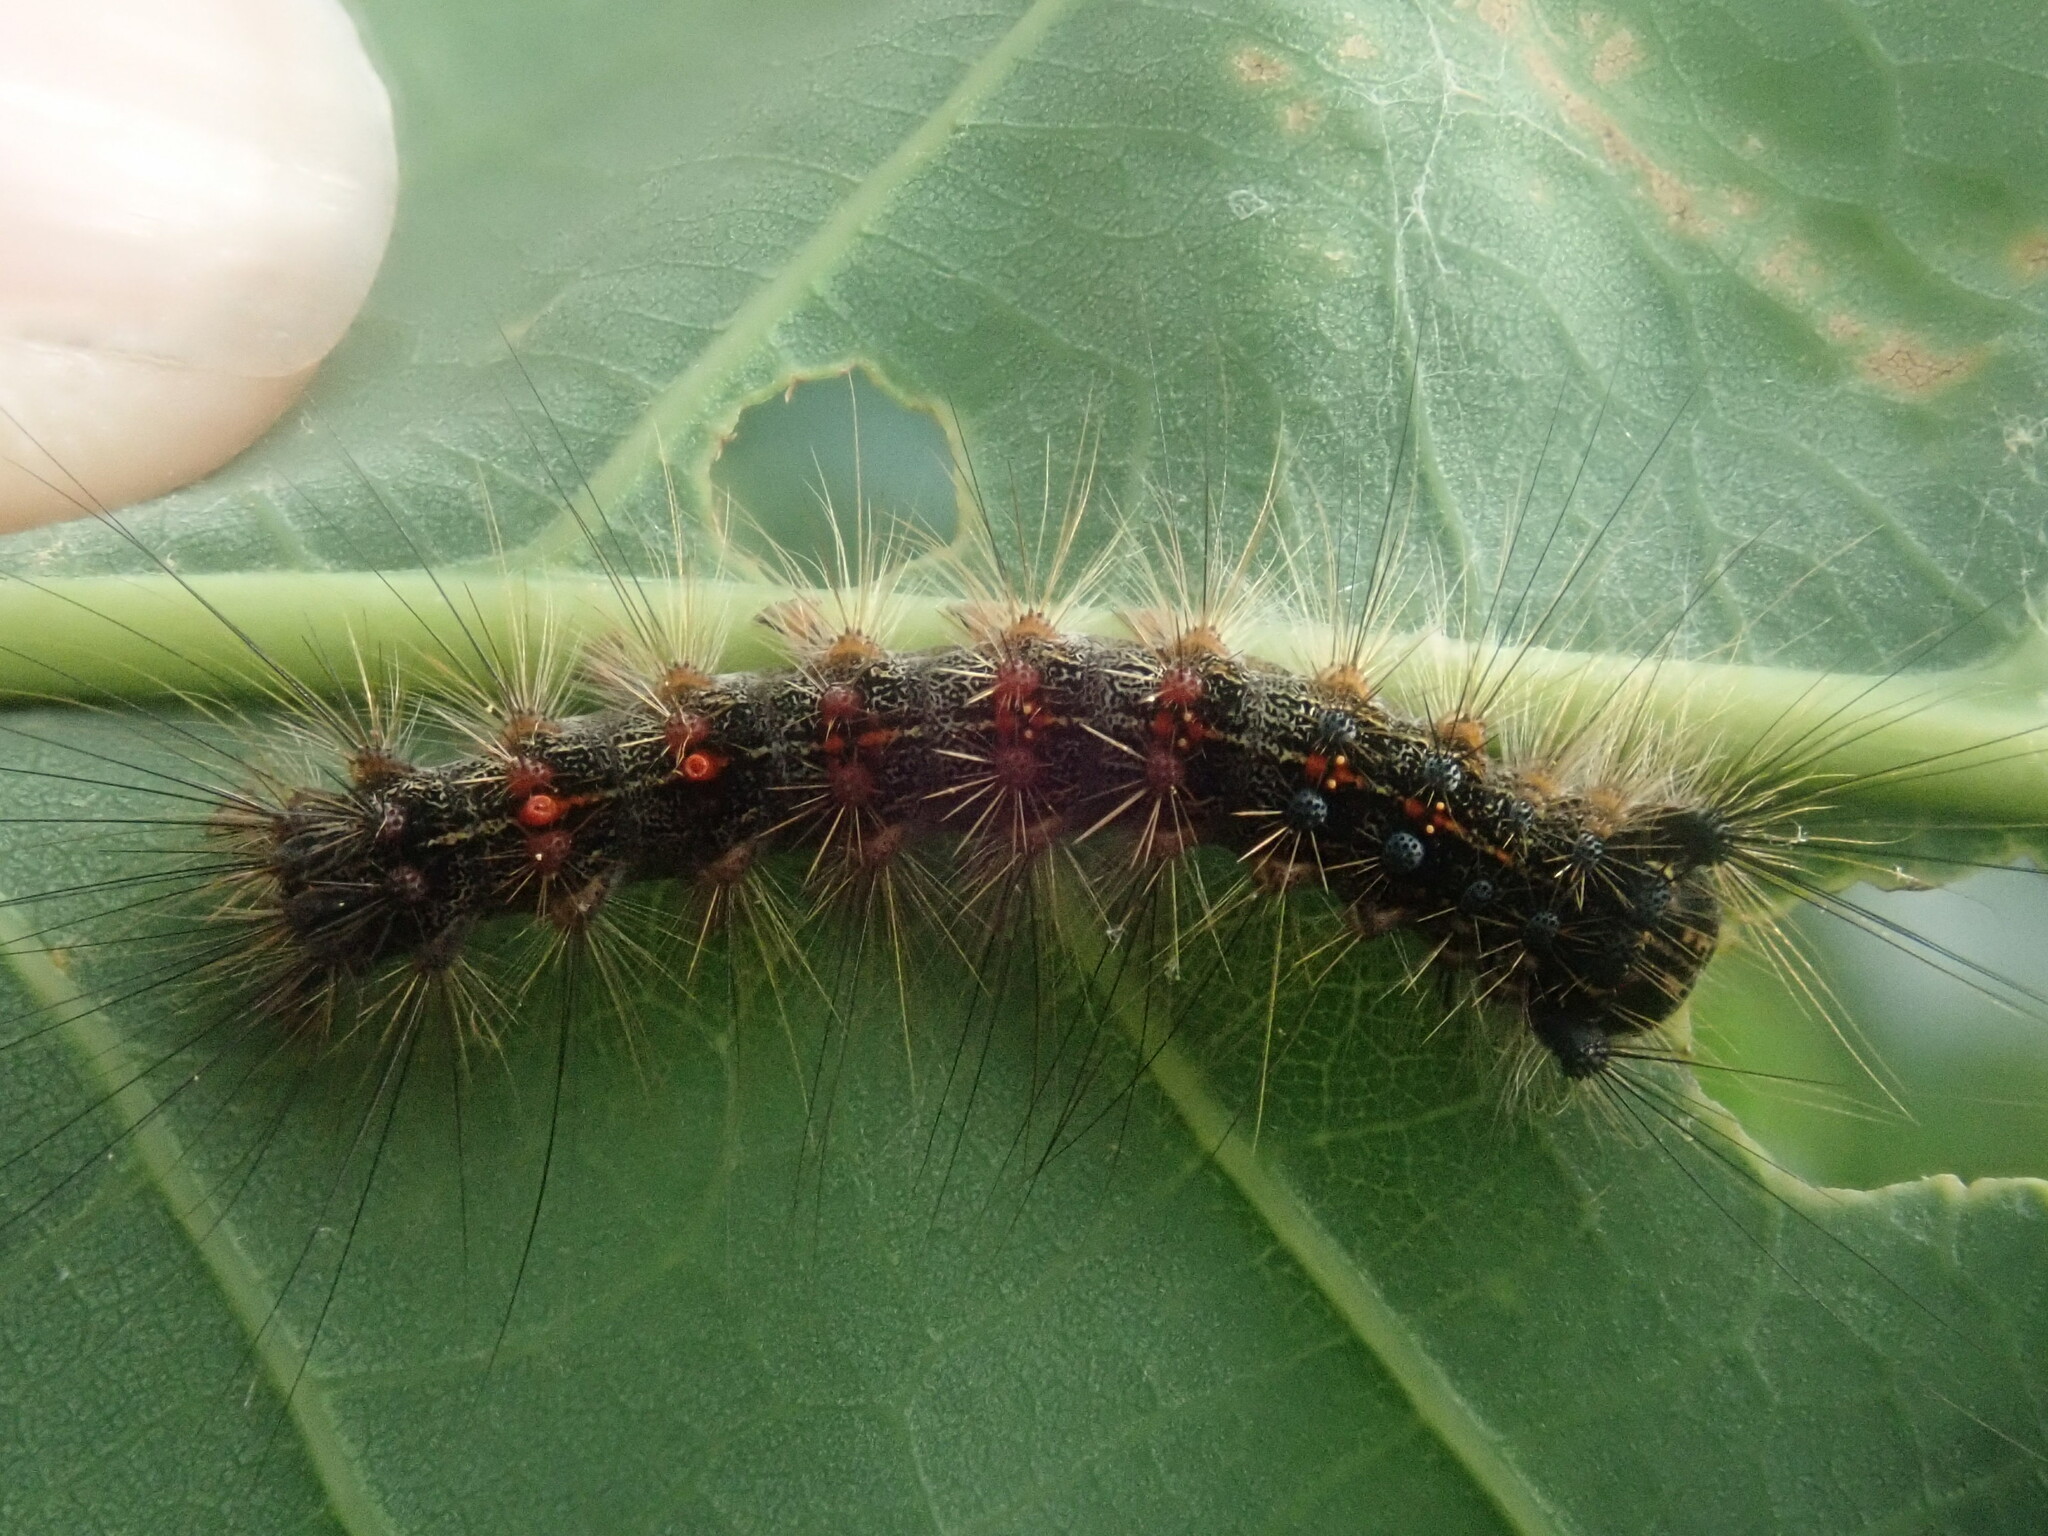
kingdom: Animalia
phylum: Arthropoda
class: Insecta
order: Lepidoptera
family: Erebidae
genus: Lymantria
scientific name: Lymantria dispar
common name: Gypsy moth
